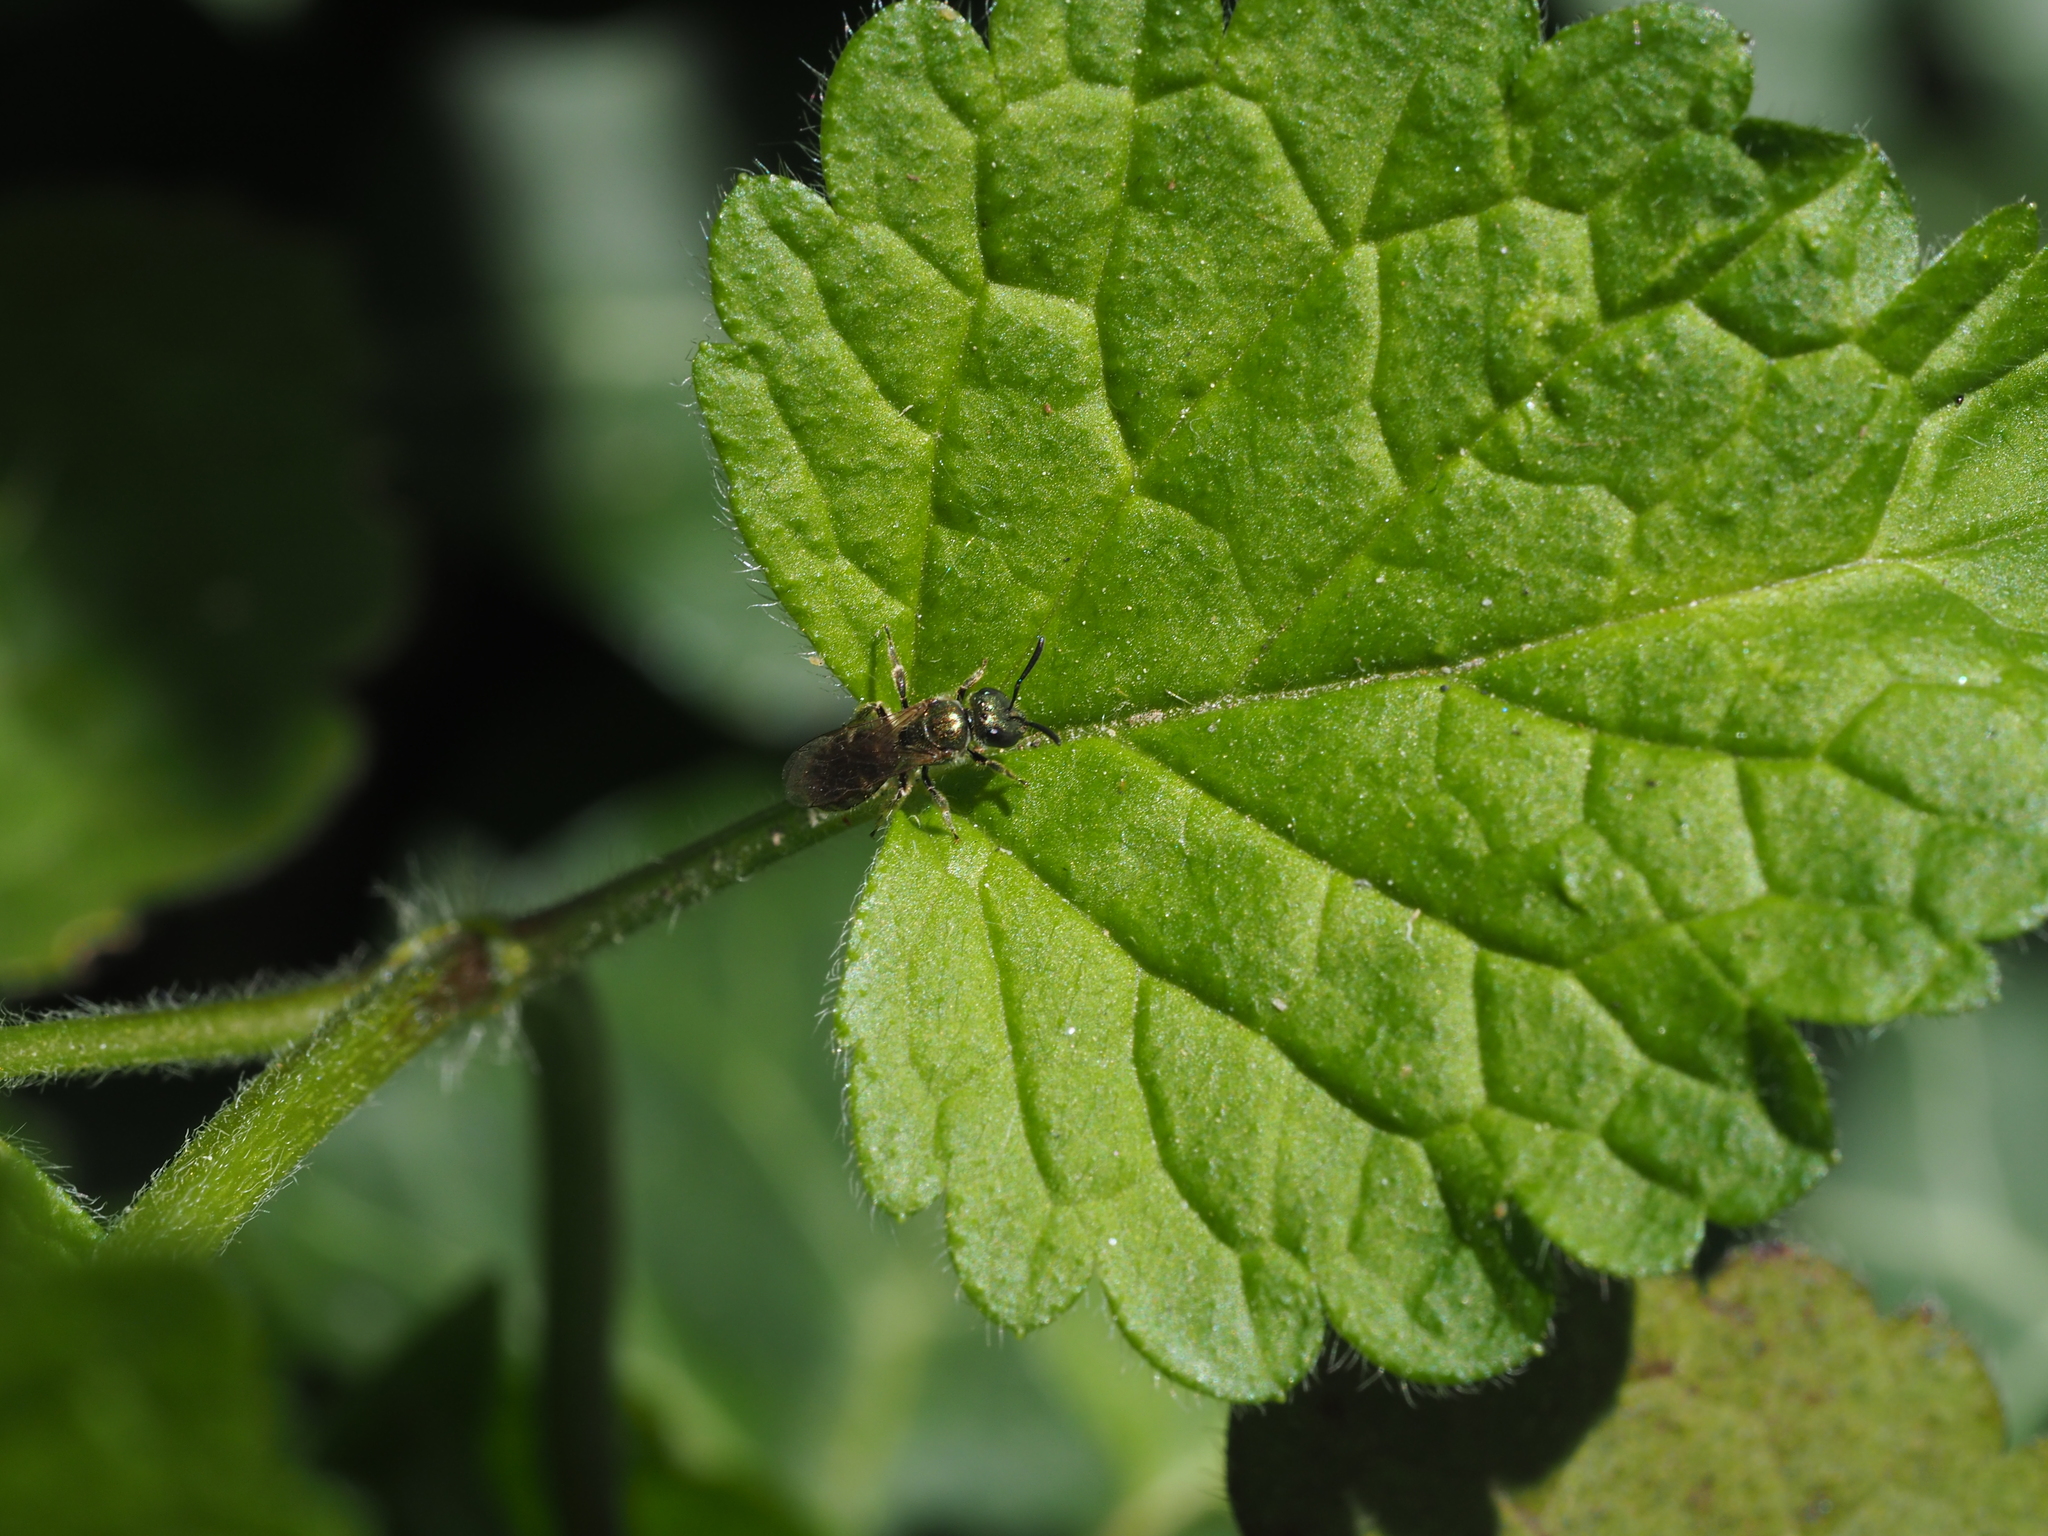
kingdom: Animalia
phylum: Arthropoda
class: Insecta
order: Hymenoptera
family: Halictidae
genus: Dialictus
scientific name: Dialictus
